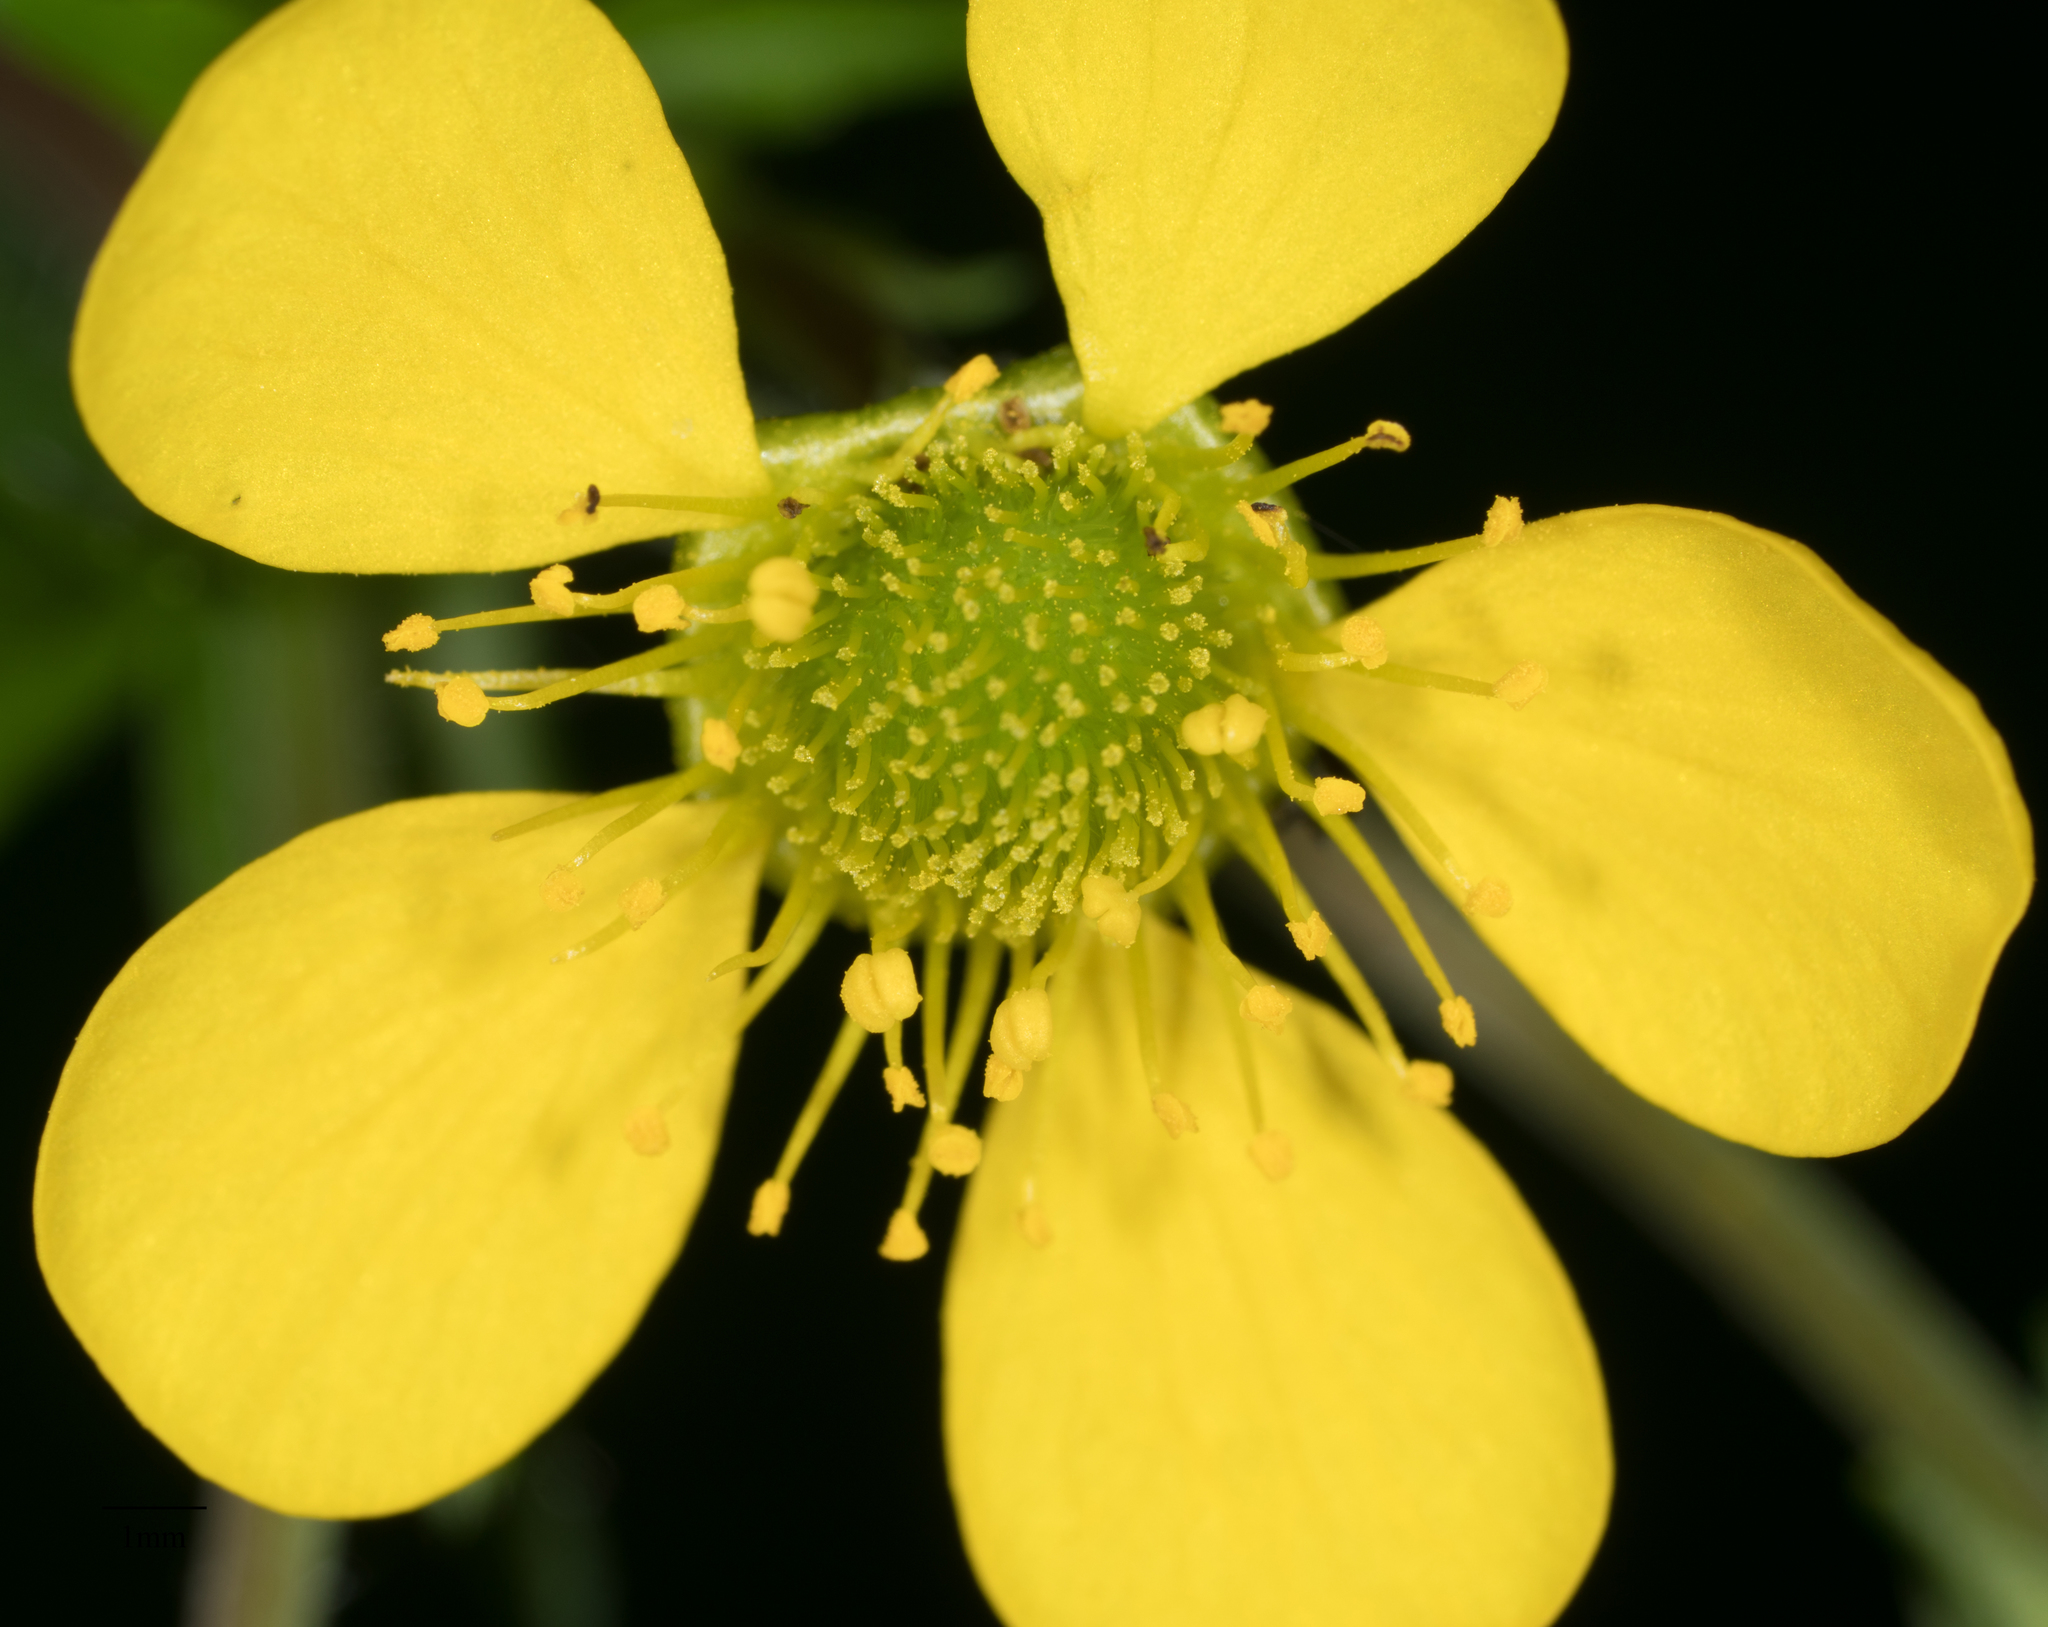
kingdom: Plantae
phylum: Tracheophyta
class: Magnoliopsida
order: Rosales
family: Rosaceae
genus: Geum
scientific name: Geum macrophyllum
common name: Large-leaved avens
